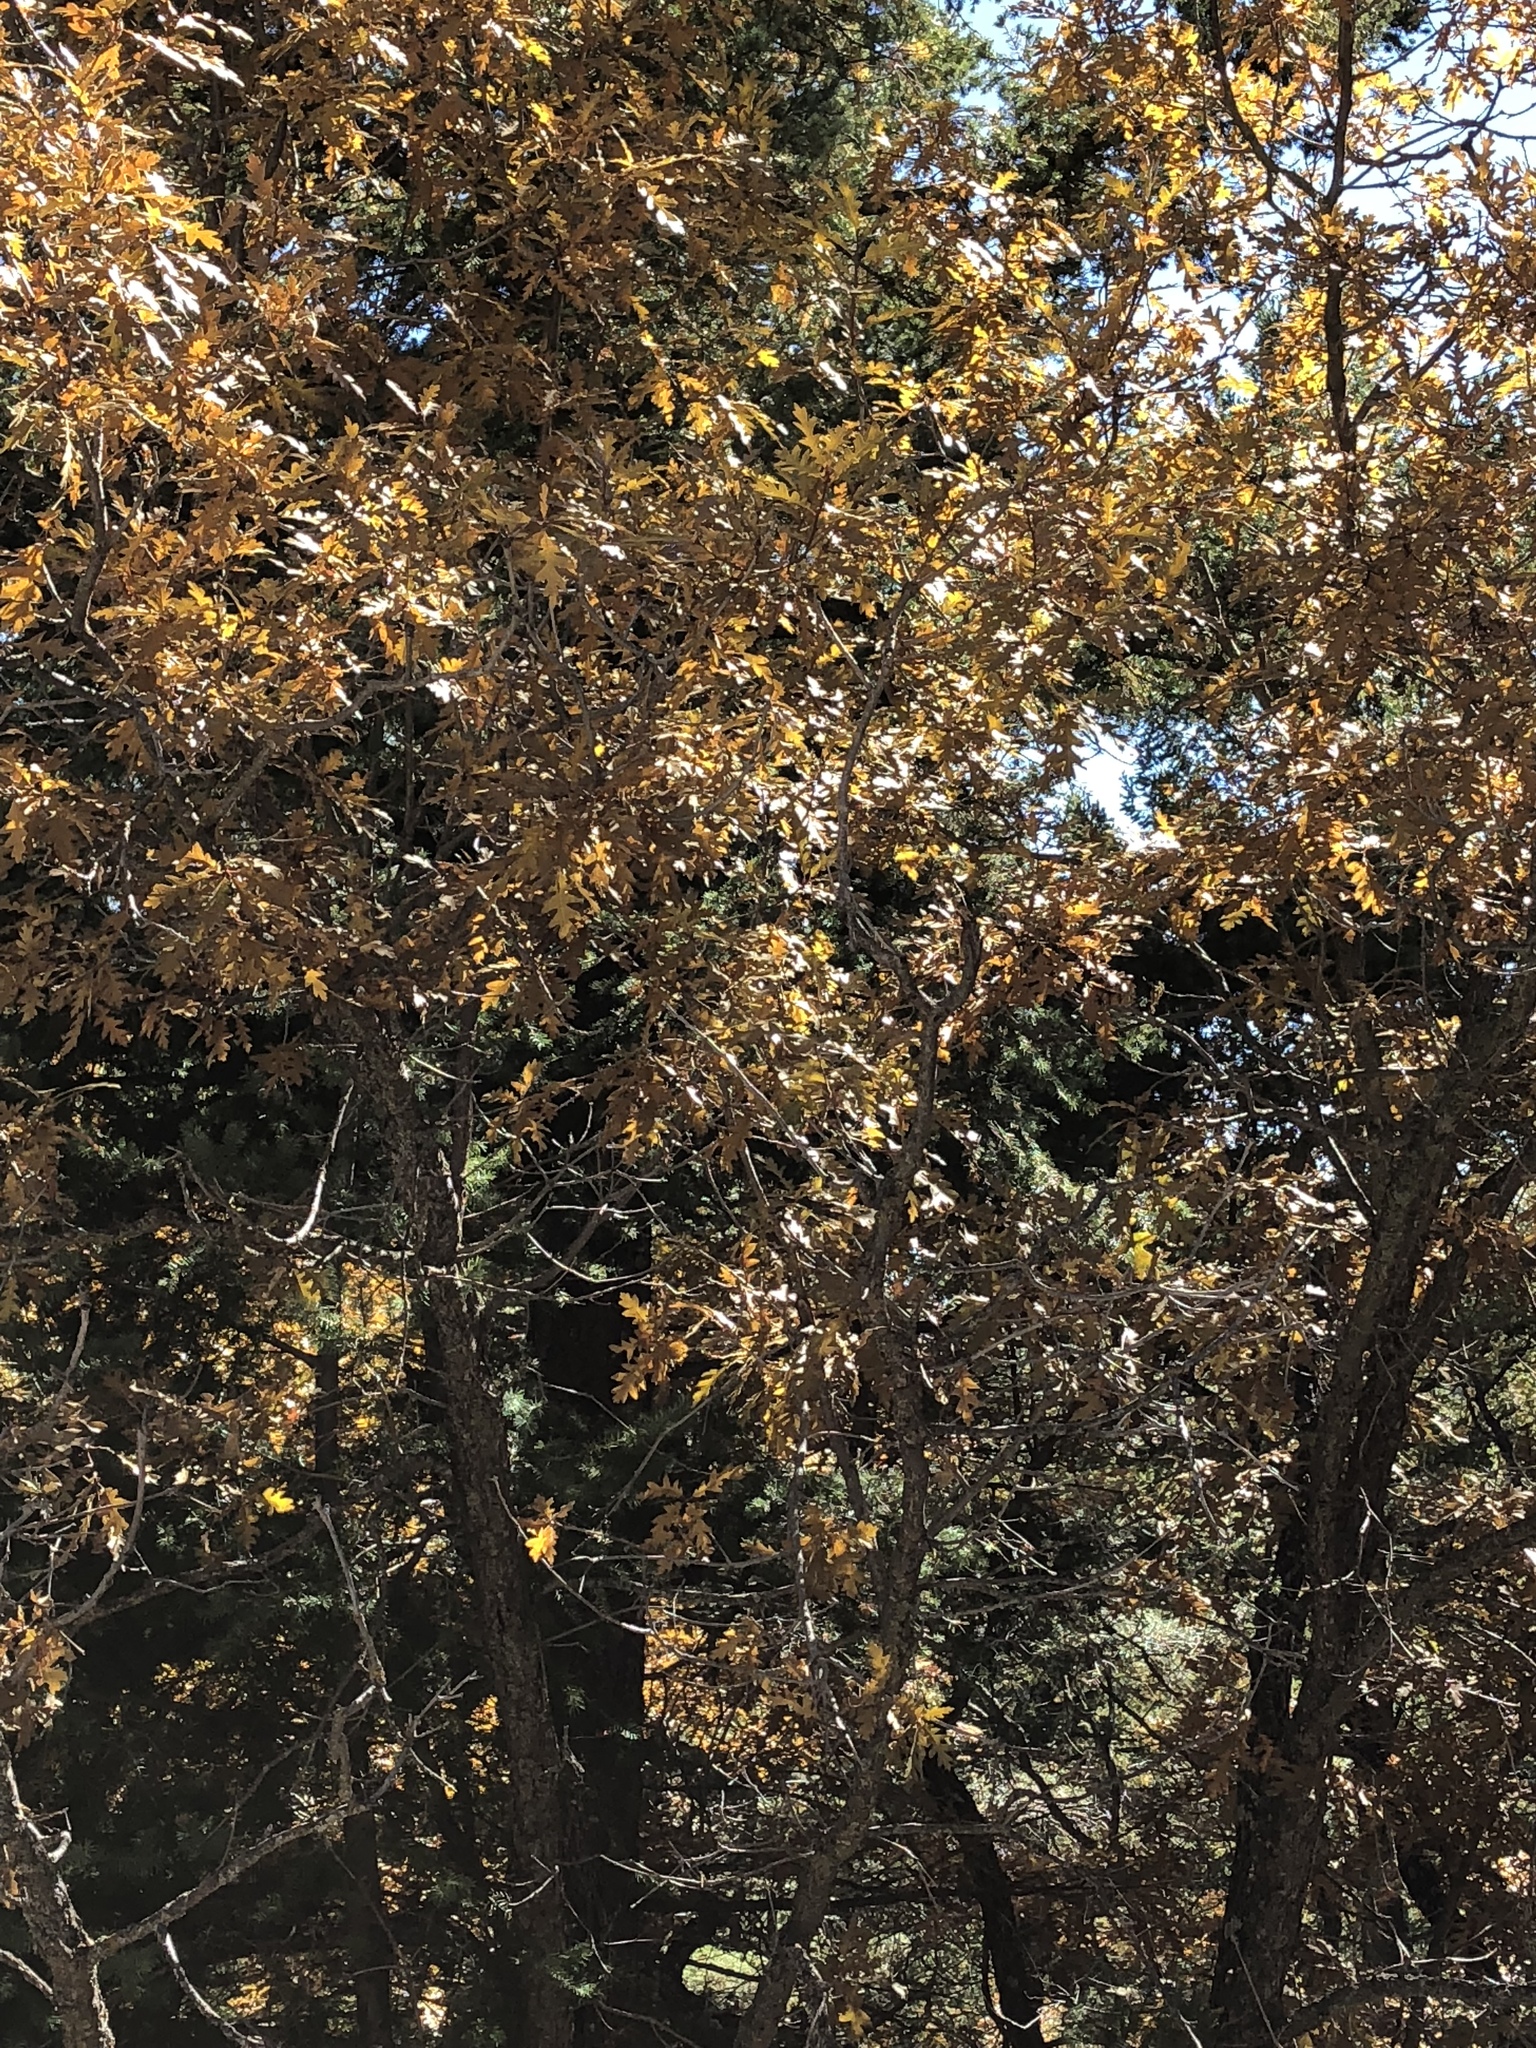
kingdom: Plantae
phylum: Tracheophyta
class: Magnoliopsida
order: Fagales
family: Fagaceae
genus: Quercus
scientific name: Quercus gambelii
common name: Gambel oak
